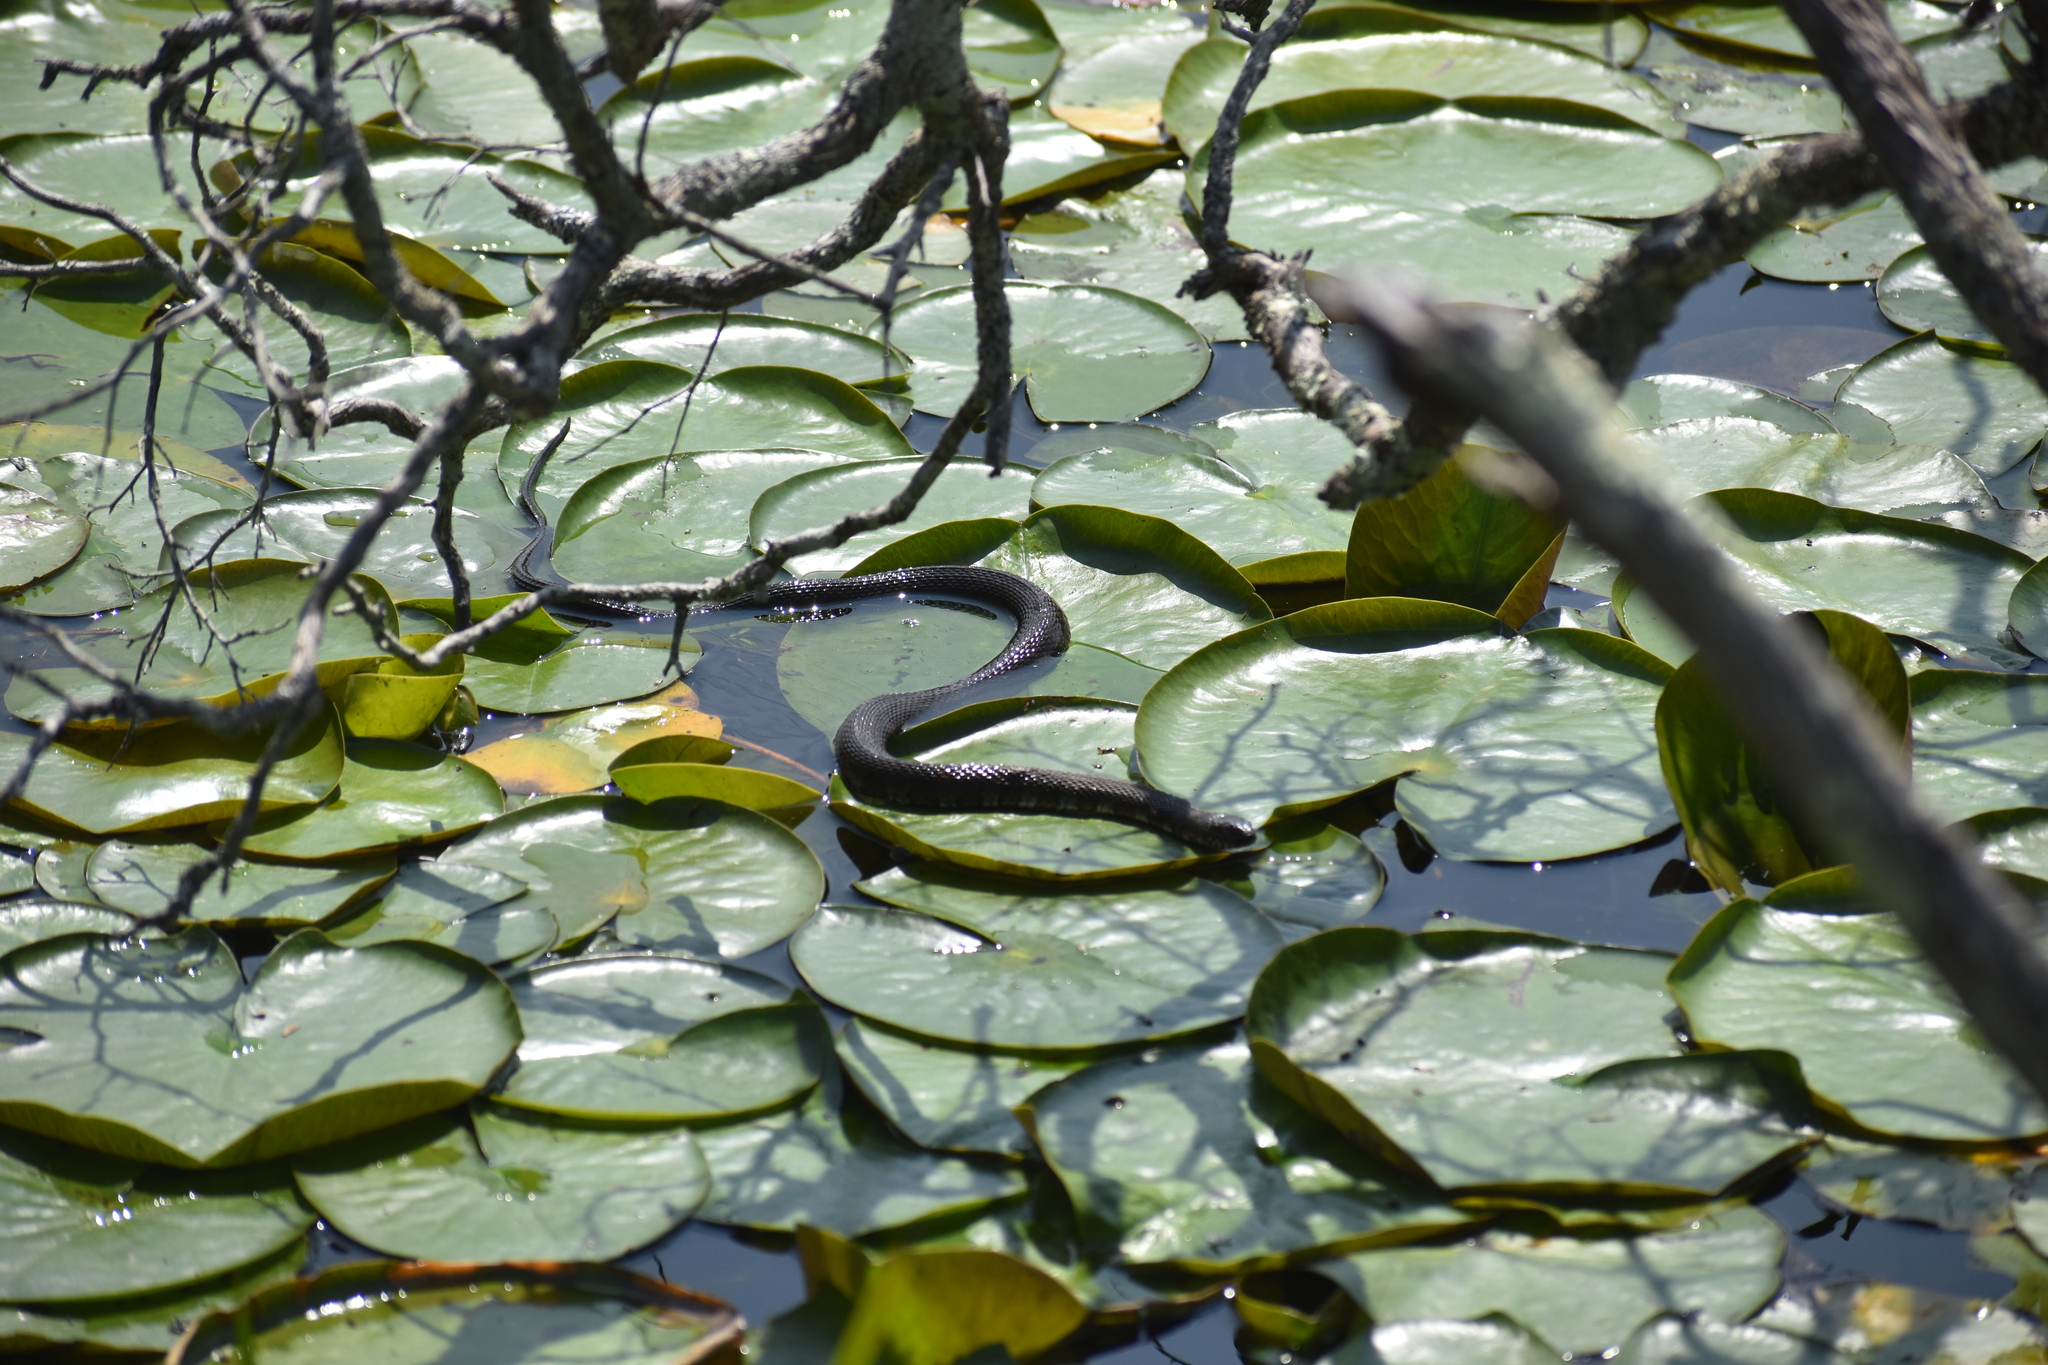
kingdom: Animalia
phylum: Chordata
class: Squamata
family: Colubridae
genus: Nerodia
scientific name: Nerodia sipedon
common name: Northern water snake
